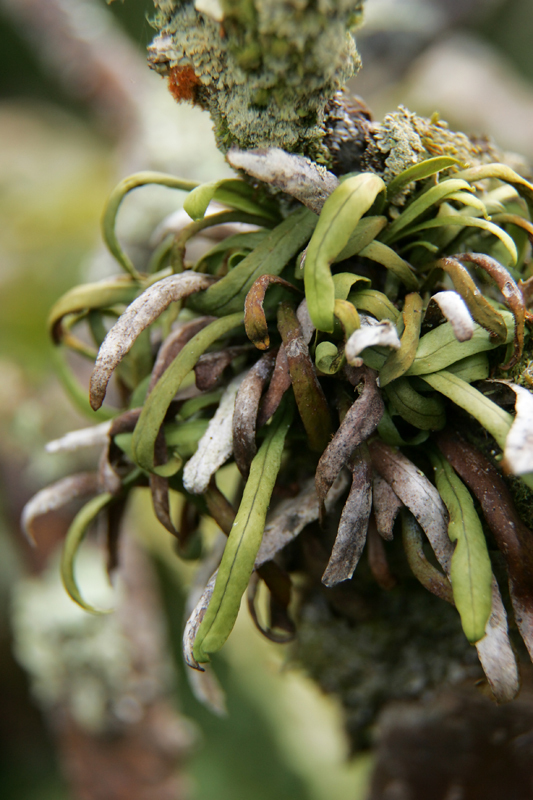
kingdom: Plantae
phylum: Tracheophyta
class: Polypodiopsida
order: Polypodiales
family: Polypodiaceae
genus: Notogrammitis
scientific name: Notogrammitis angustifolia
